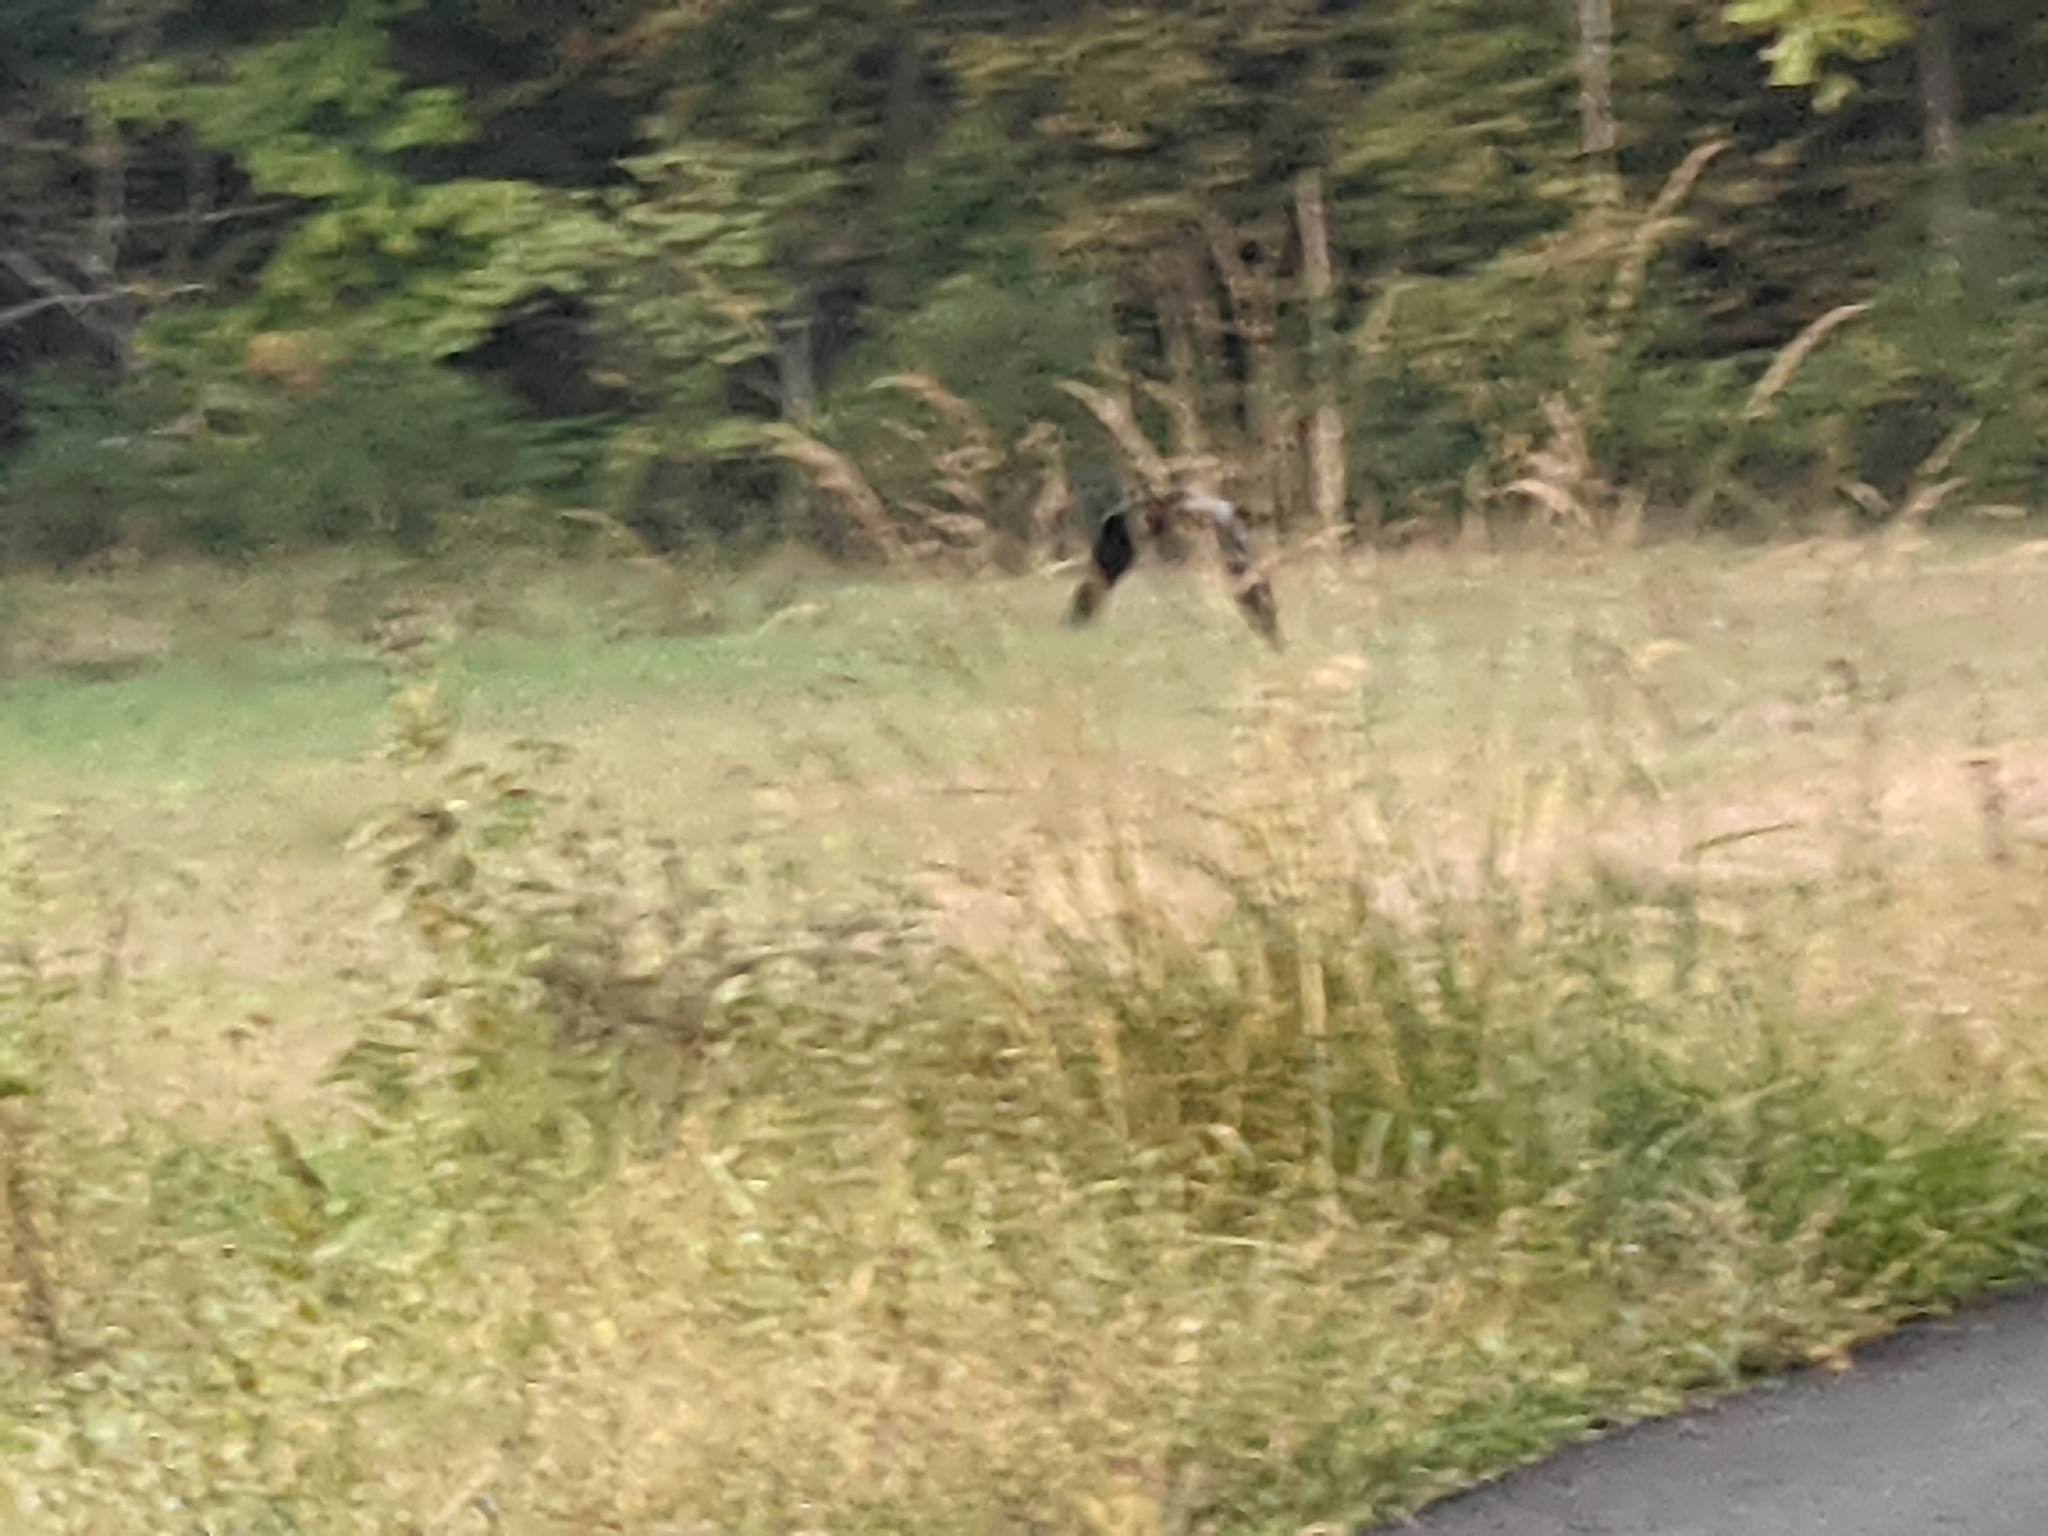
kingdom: Animalia
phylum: Chordata
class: Aves
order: Passeriformes
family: Corvidae
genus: Corvus
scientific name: Corvus corax
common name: Common raven
